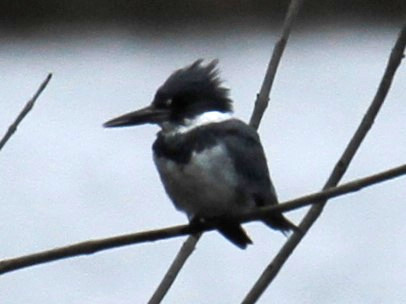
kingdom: Animalia
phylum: Chordata
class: Aves
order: Coraciiformes
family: Alcedinidae
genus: Megaceryle
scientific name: Megaceryle alcyon
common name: Belted kingfisher
